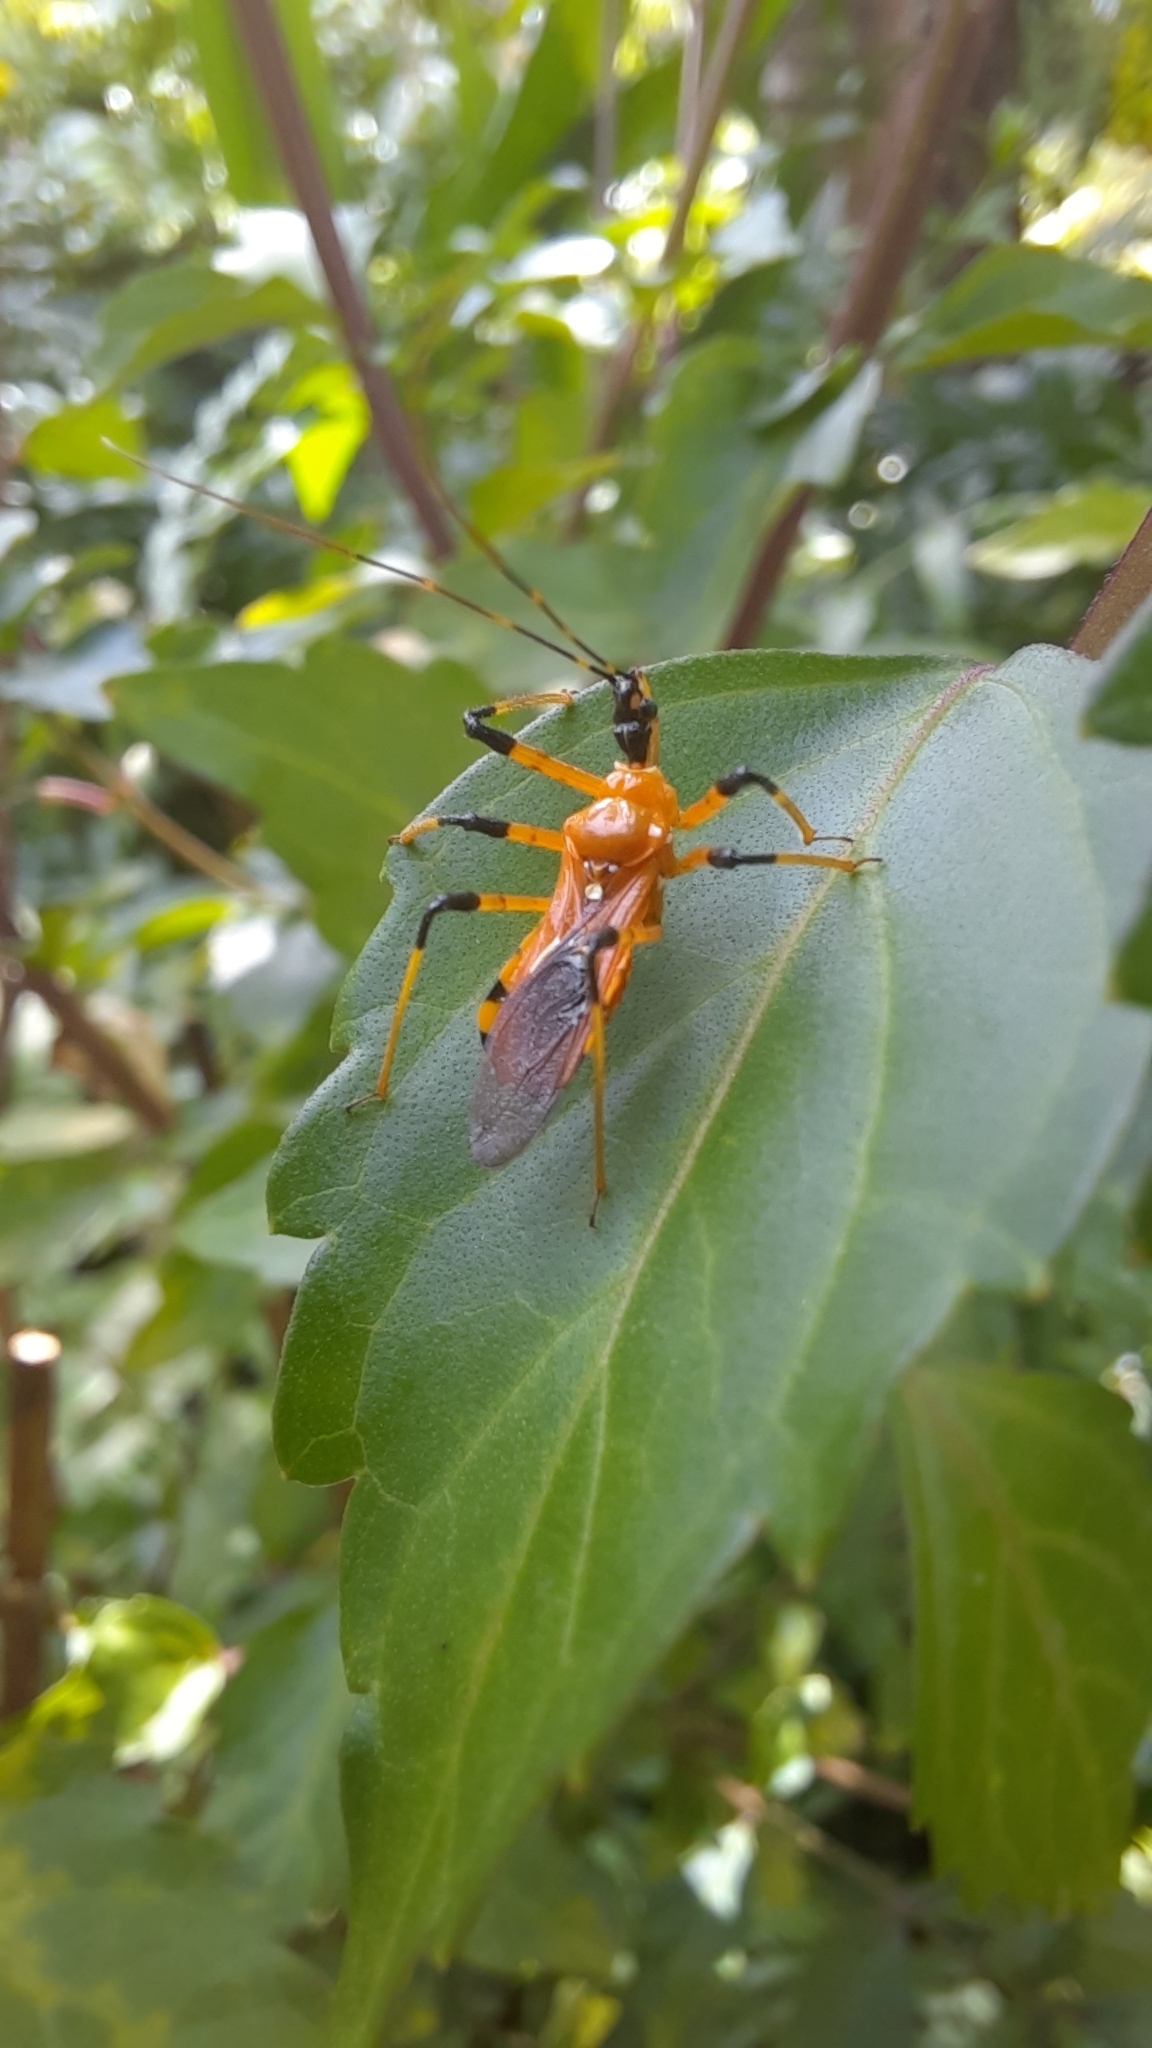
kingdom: Animalia
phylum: Arthropoda
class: Insecta
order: Hemiptera
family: Reduviidae
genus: Cosmolestes
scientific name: Cosmolestes picticeps
